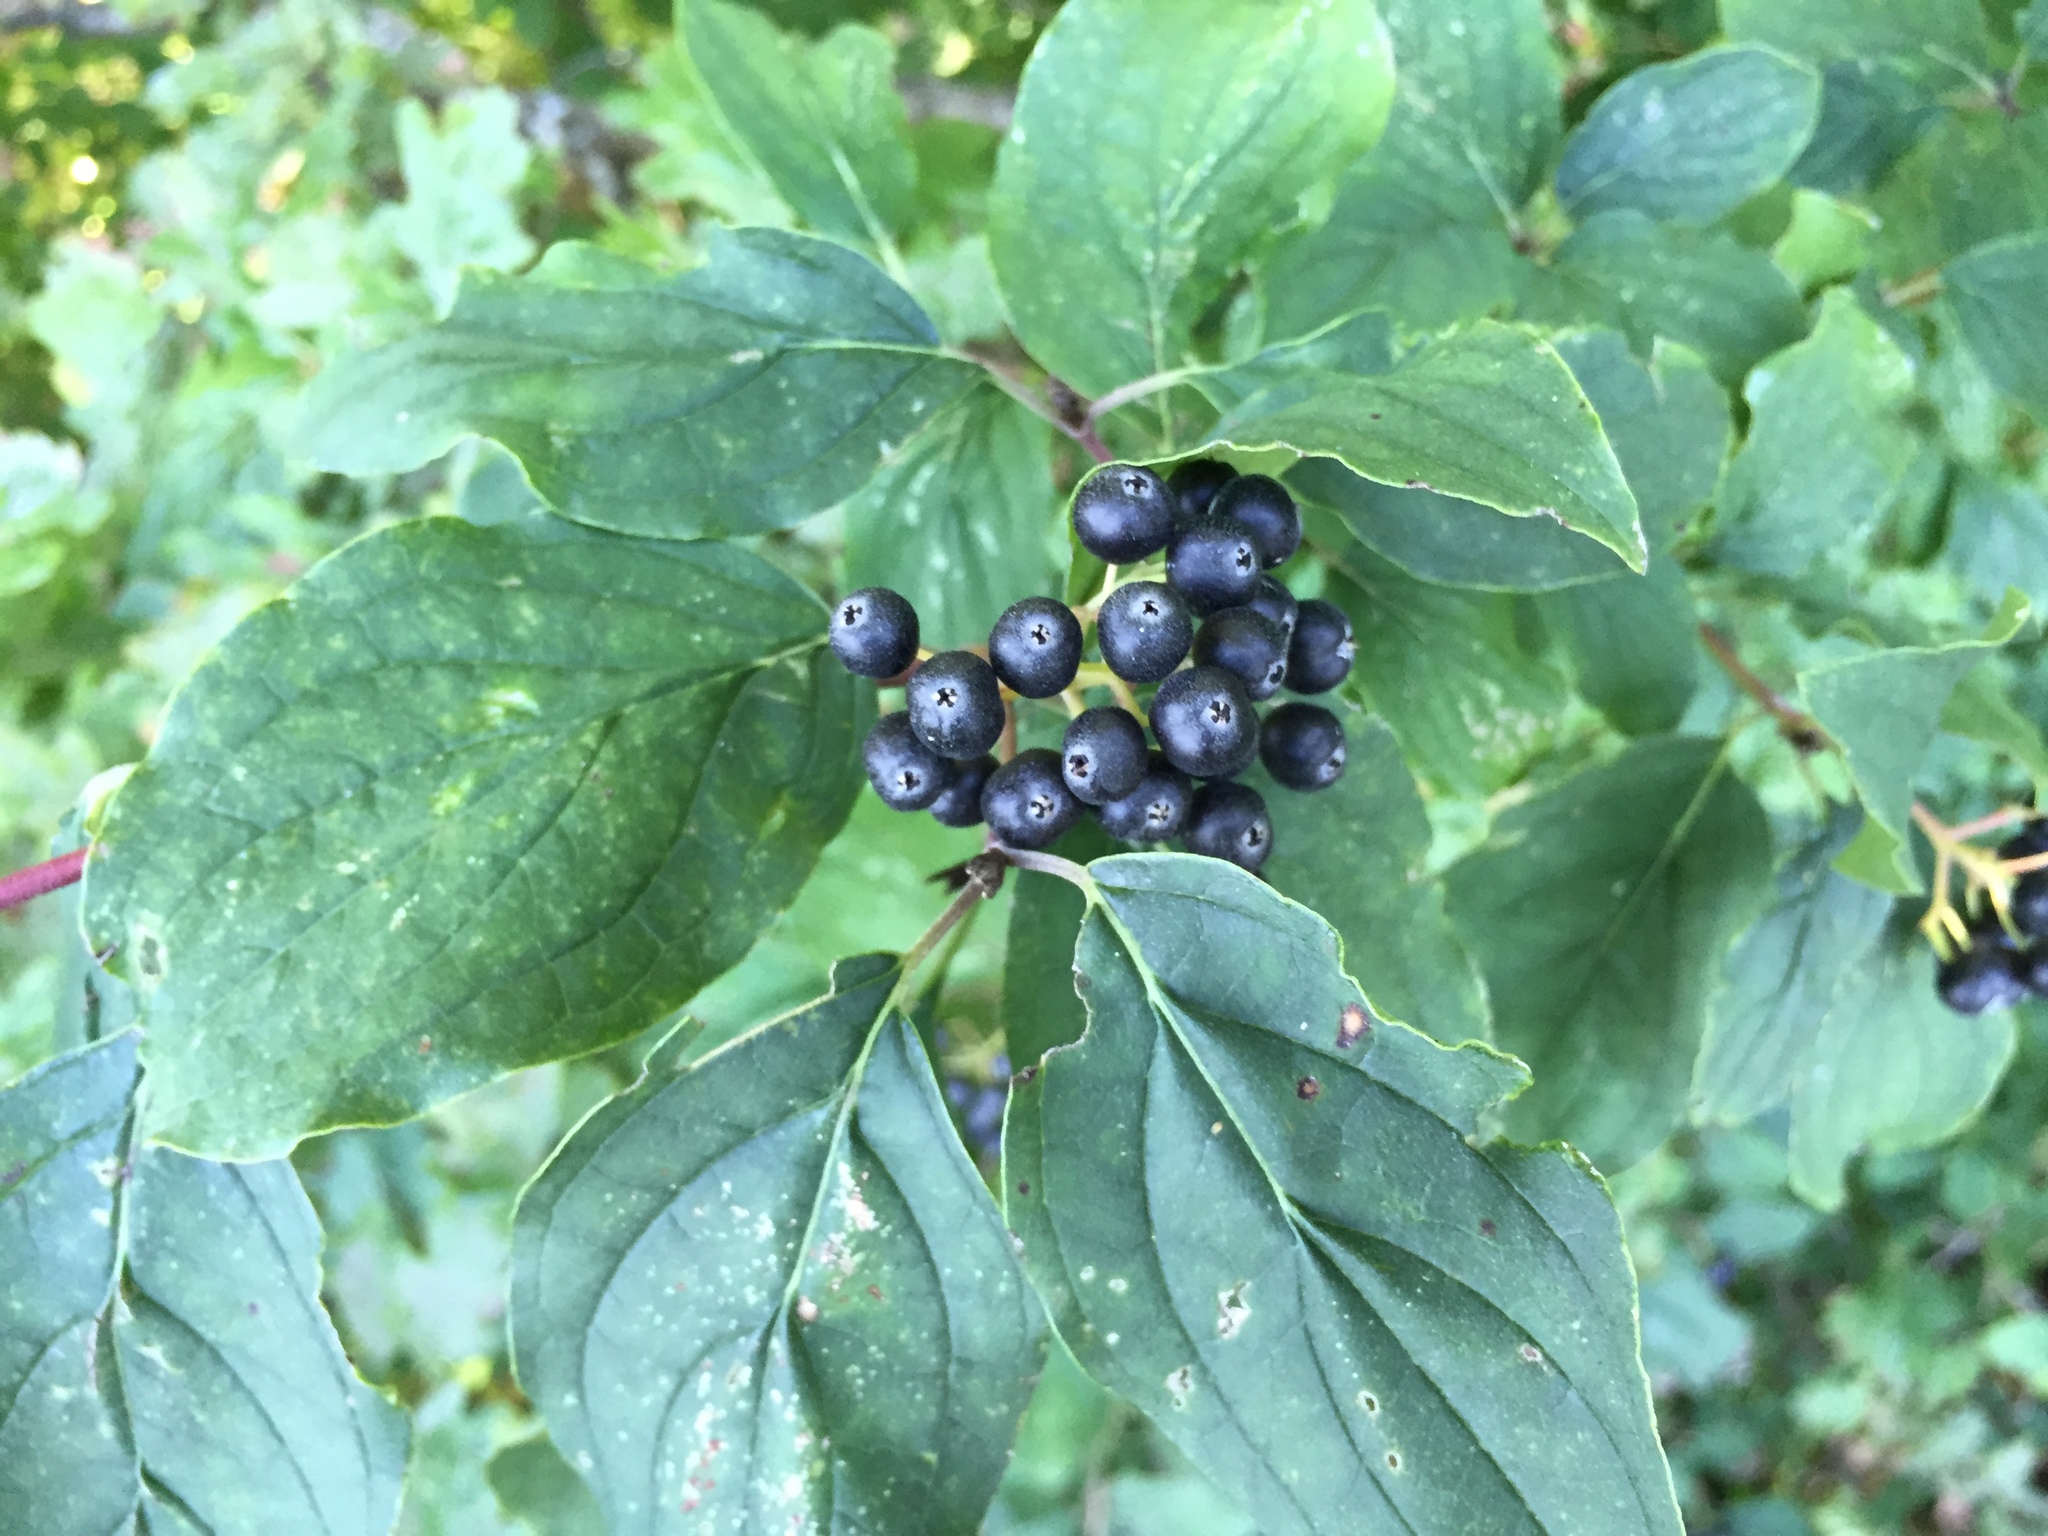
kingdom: Plantae
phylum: Tracheophyta
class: Magnoliopsida
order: Cornales
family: Cornaceae
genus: Cornus
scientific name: Cornus sanguinea
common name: Dogwood
